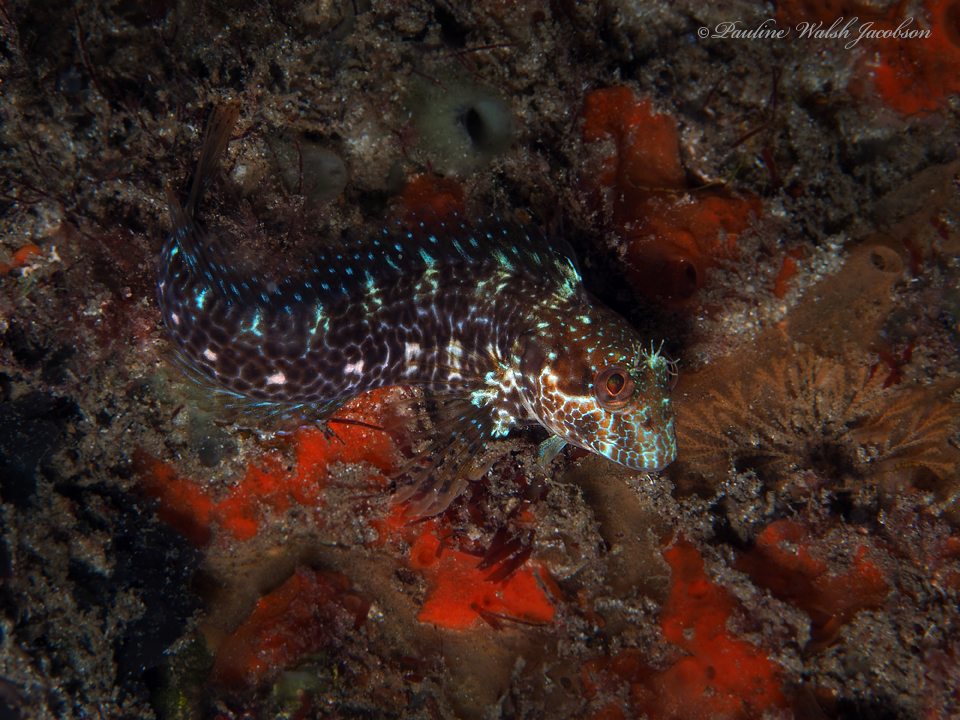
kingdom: Animalia
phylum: Chordata
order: Perciformes
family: Blenniidae
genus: Parablennius
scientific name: Parablennius marmoreus
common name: Seaweed blenny
